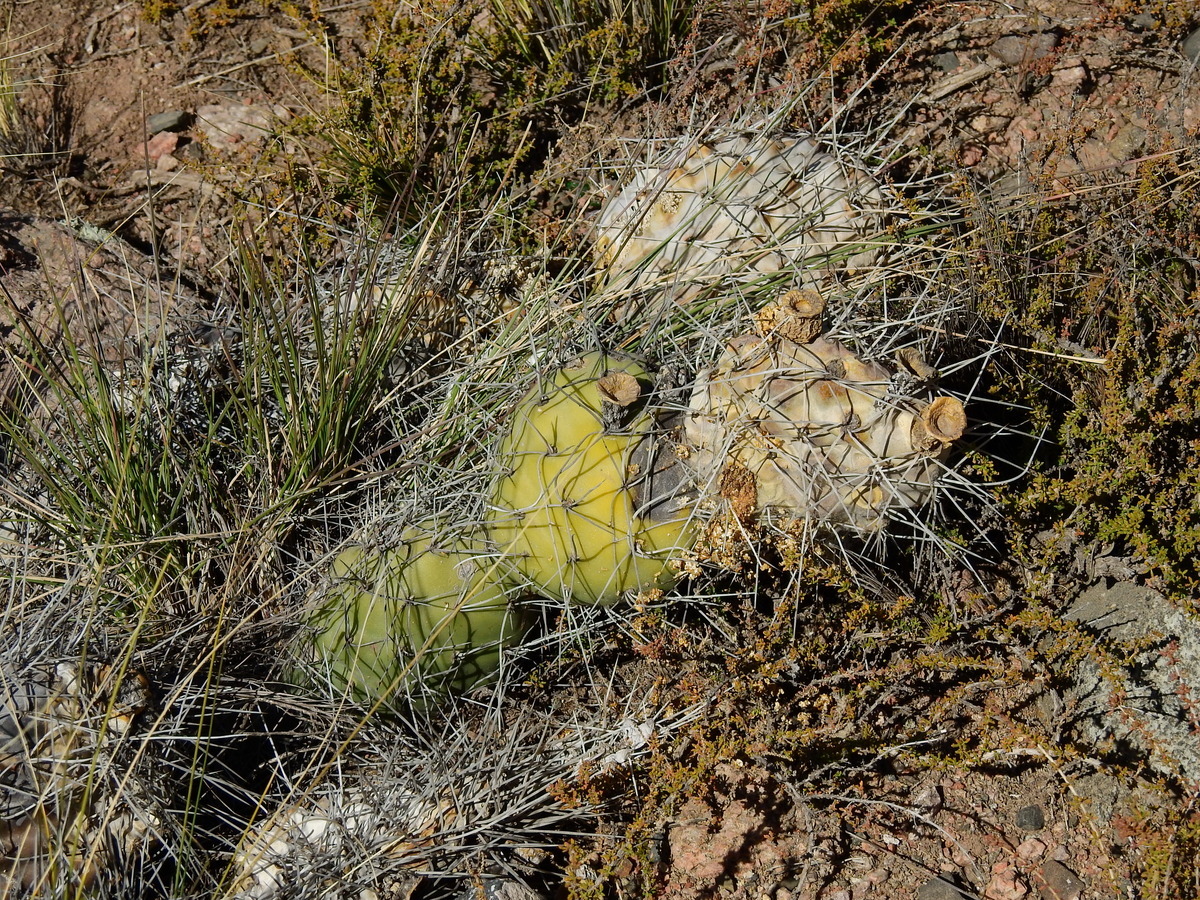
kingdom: Plantae
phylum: Tracheophyta
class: Magnoliopsida
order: Caryophyllales
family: Cactaceae
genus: Opuntia
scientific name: Opuntia sulphurea
